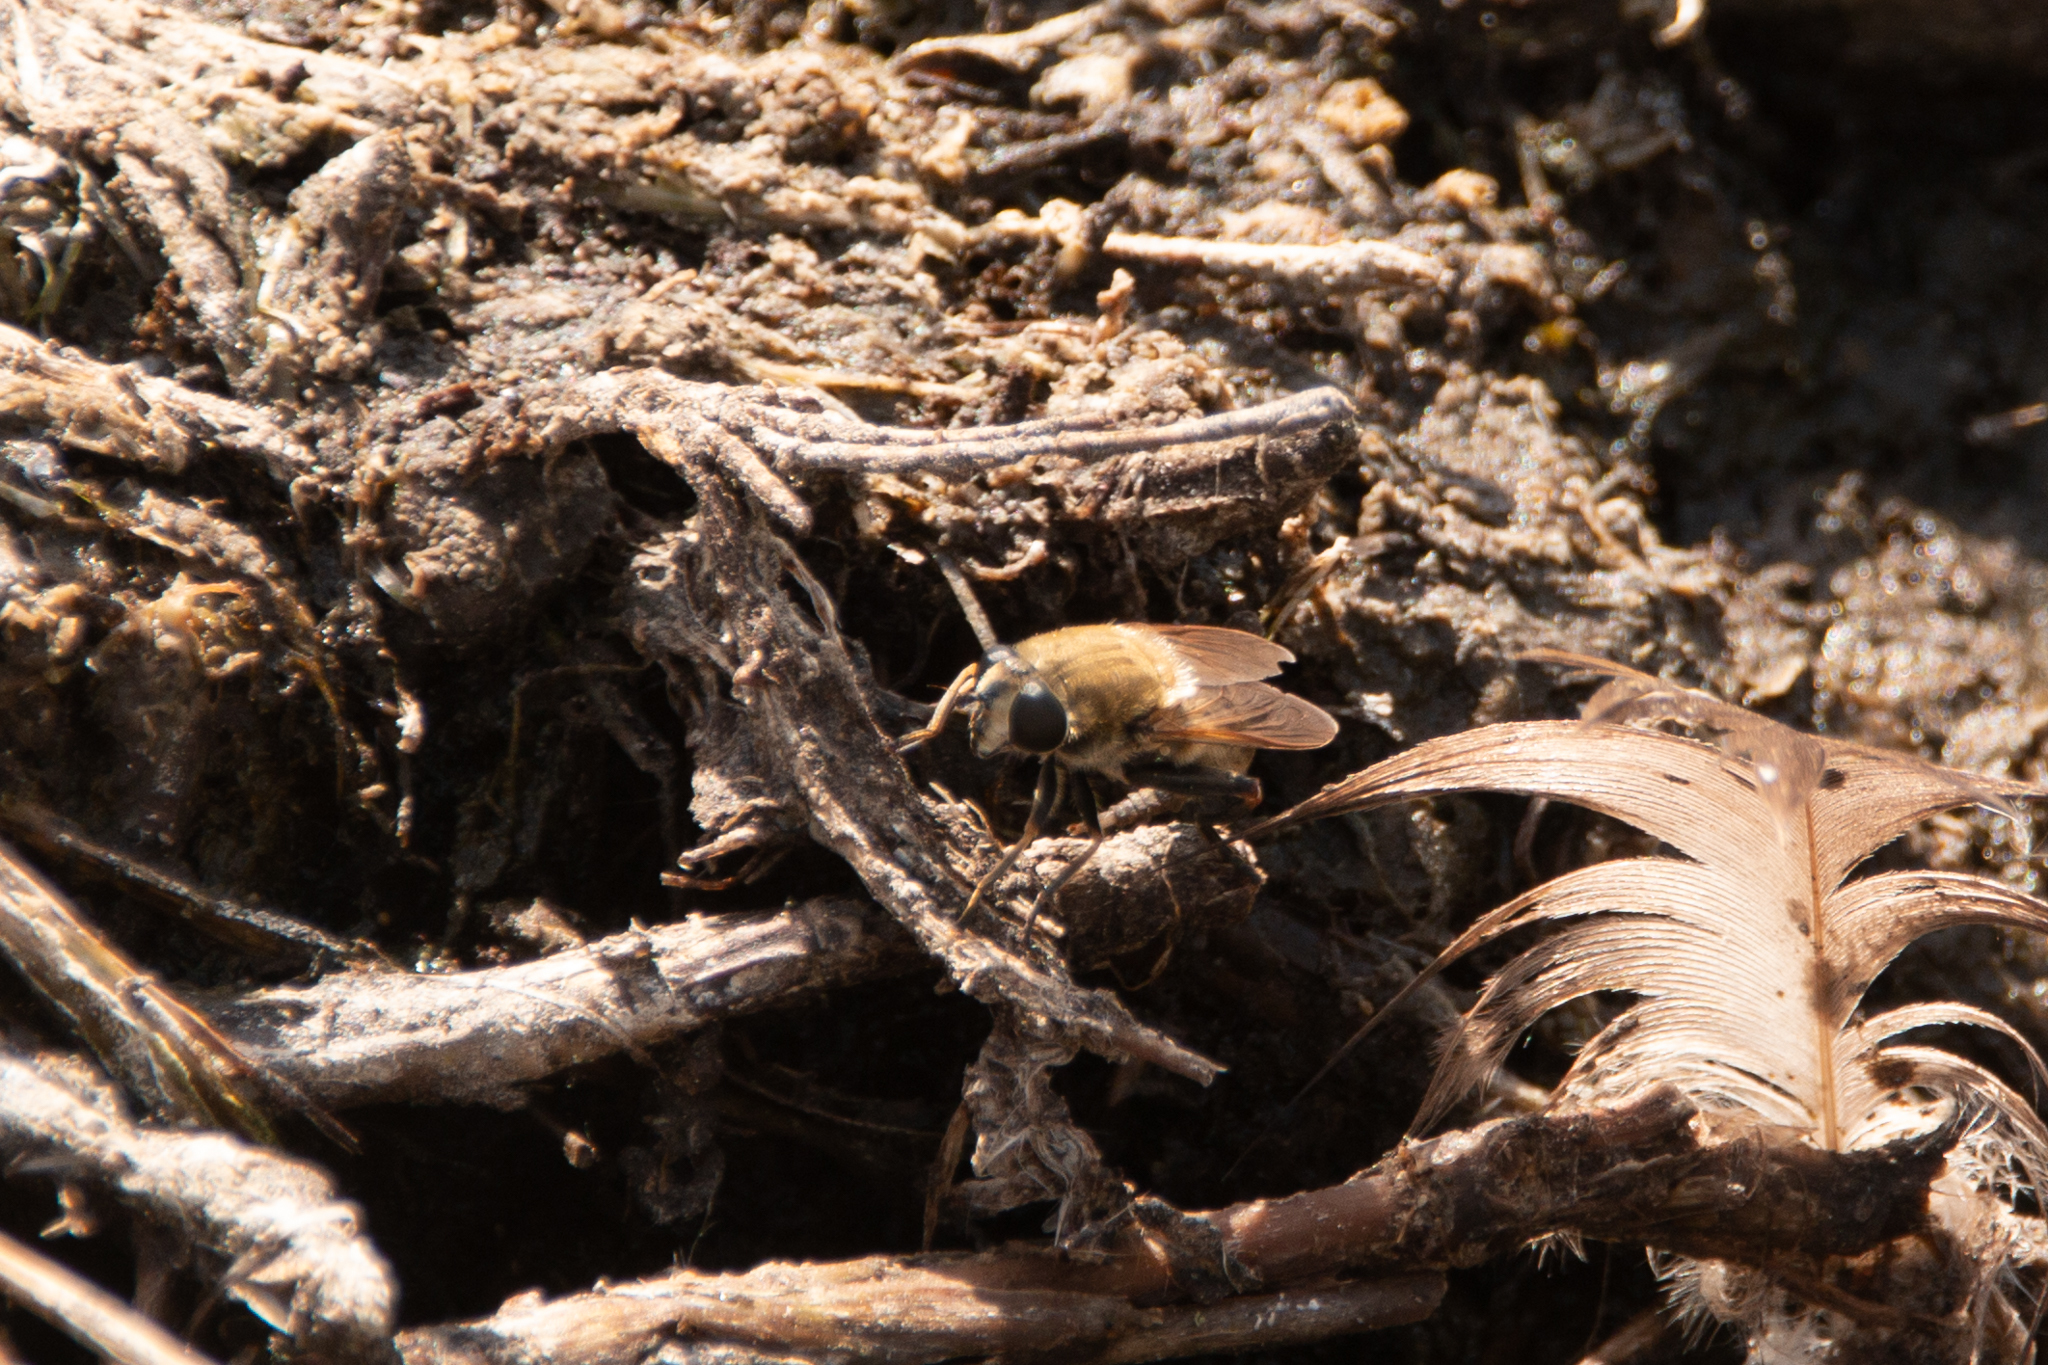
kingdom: Animalia
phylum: Arthropoda
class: Insecta
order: Diptera
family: Syrphidae
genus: Polydontomyia
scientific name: Polydontomyia curvipes
